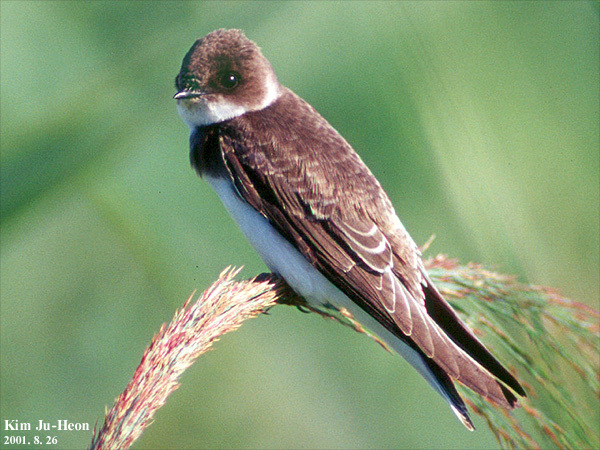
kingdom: Animalia
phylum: Chordata
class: Aves
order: Passeriformes
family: Hirundinidae
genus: Riparia
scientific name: Riparia riparia
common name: Sand martin
